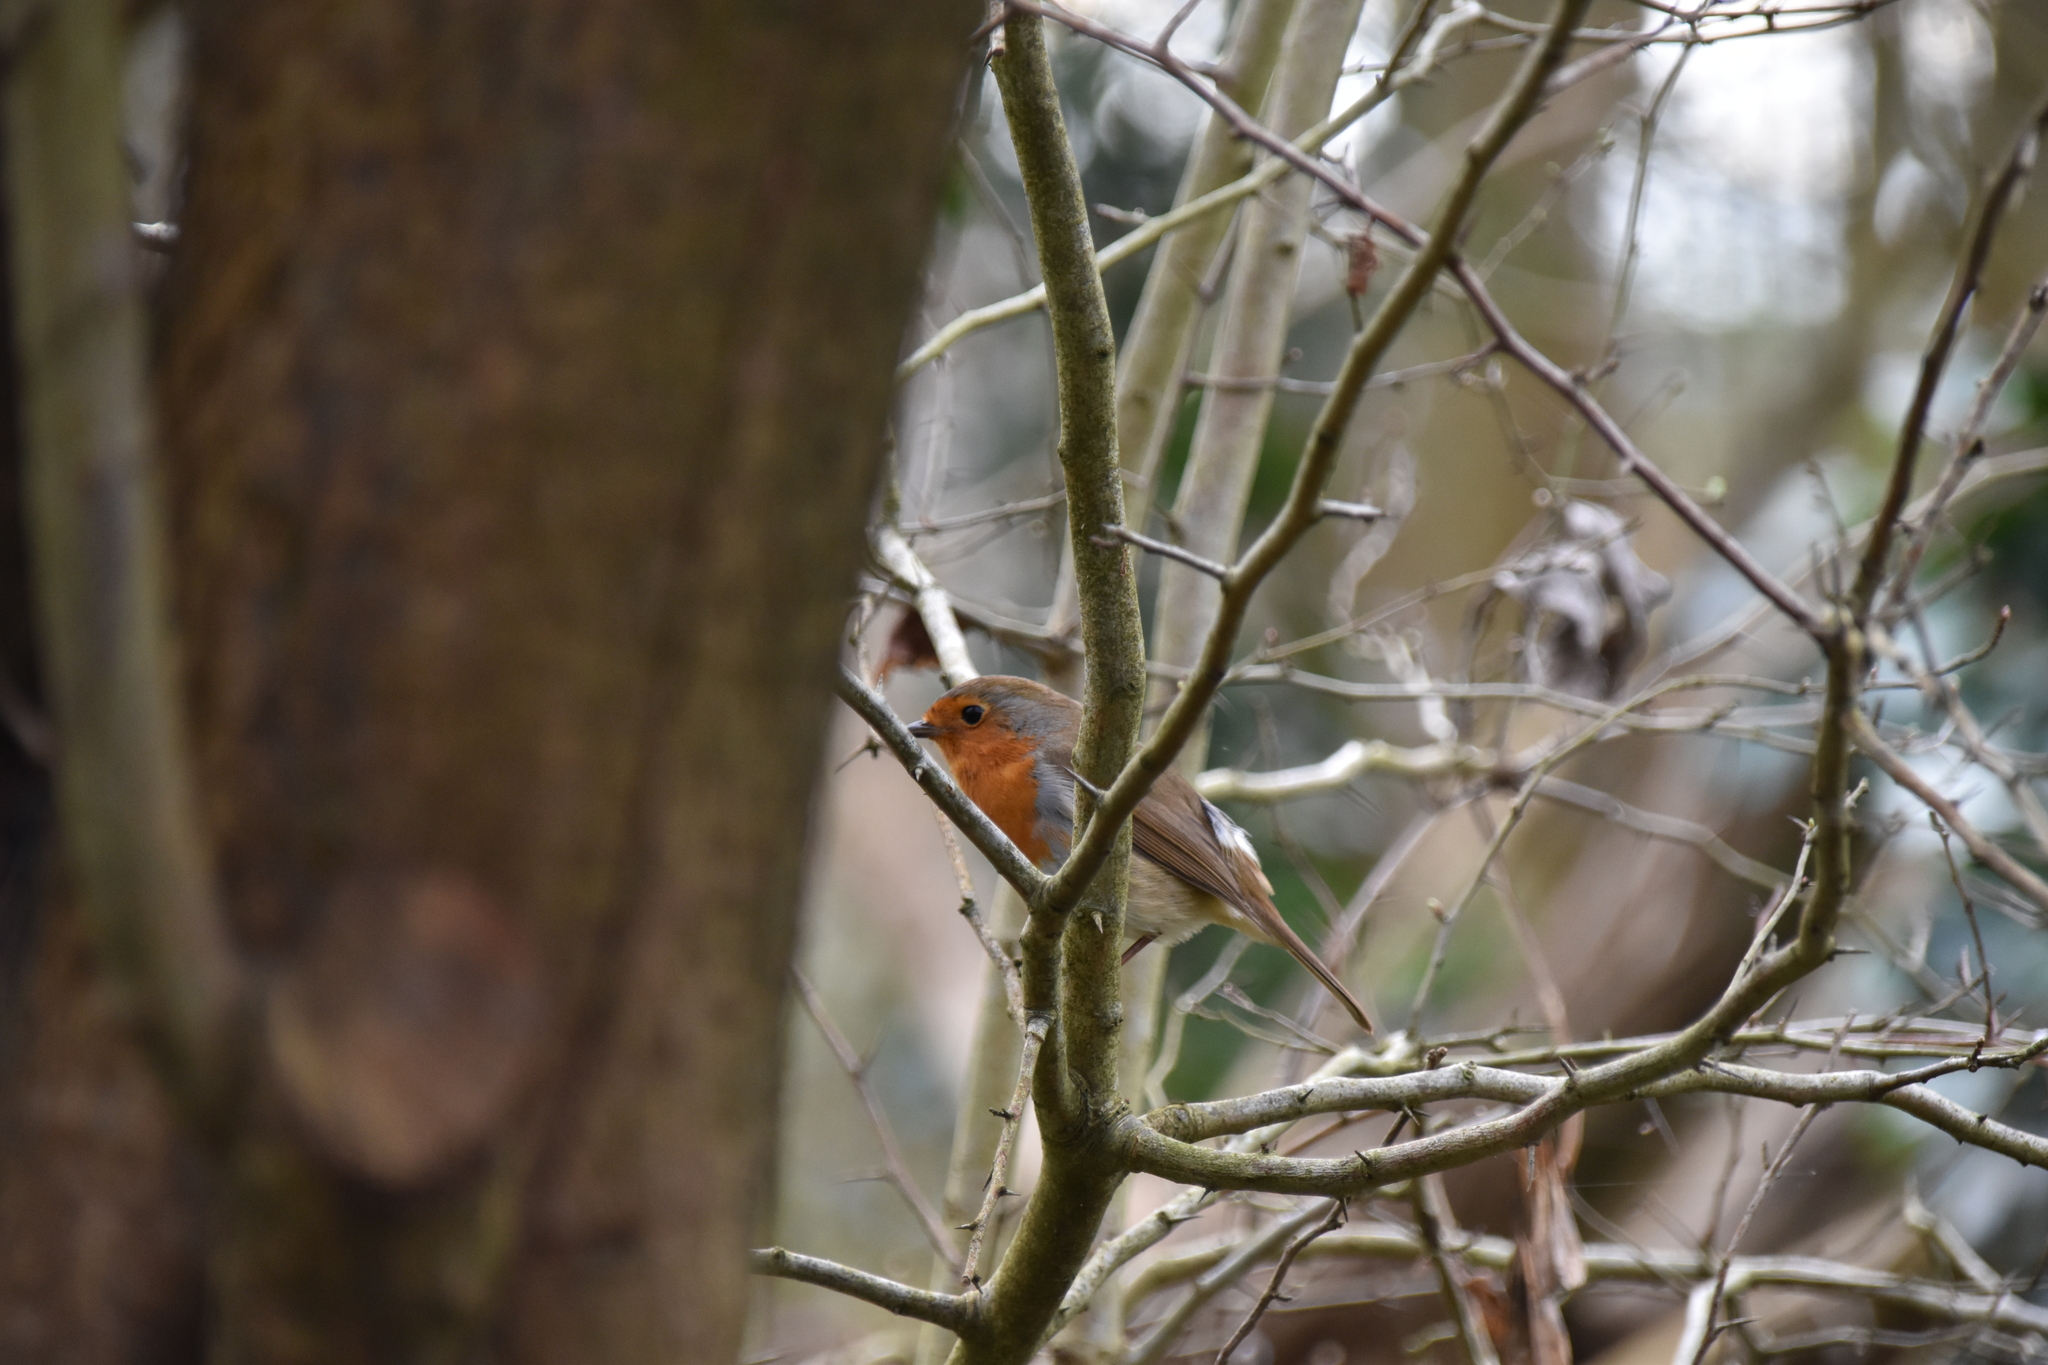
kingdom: Animalia
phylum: Chordata
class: Aves
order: Passeriformes
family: Muscicapidae
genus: Erithacus
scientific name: Erithacus rubecula
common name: European robin
